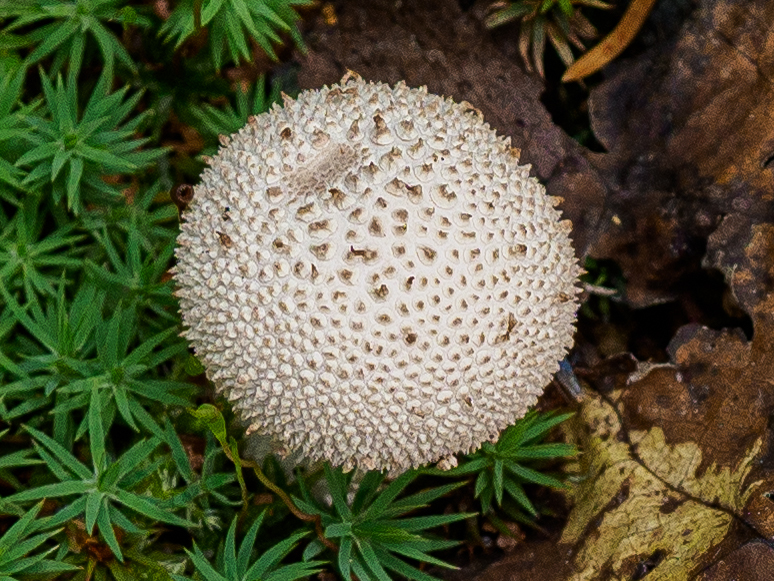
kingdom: Fungi
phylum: Basidiomycota
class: Agaricomycetes
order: Agaricales
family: Lycoperdaceae
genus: Lycoperdon
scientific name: Lycoperdon perlatum
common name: Common puffball
